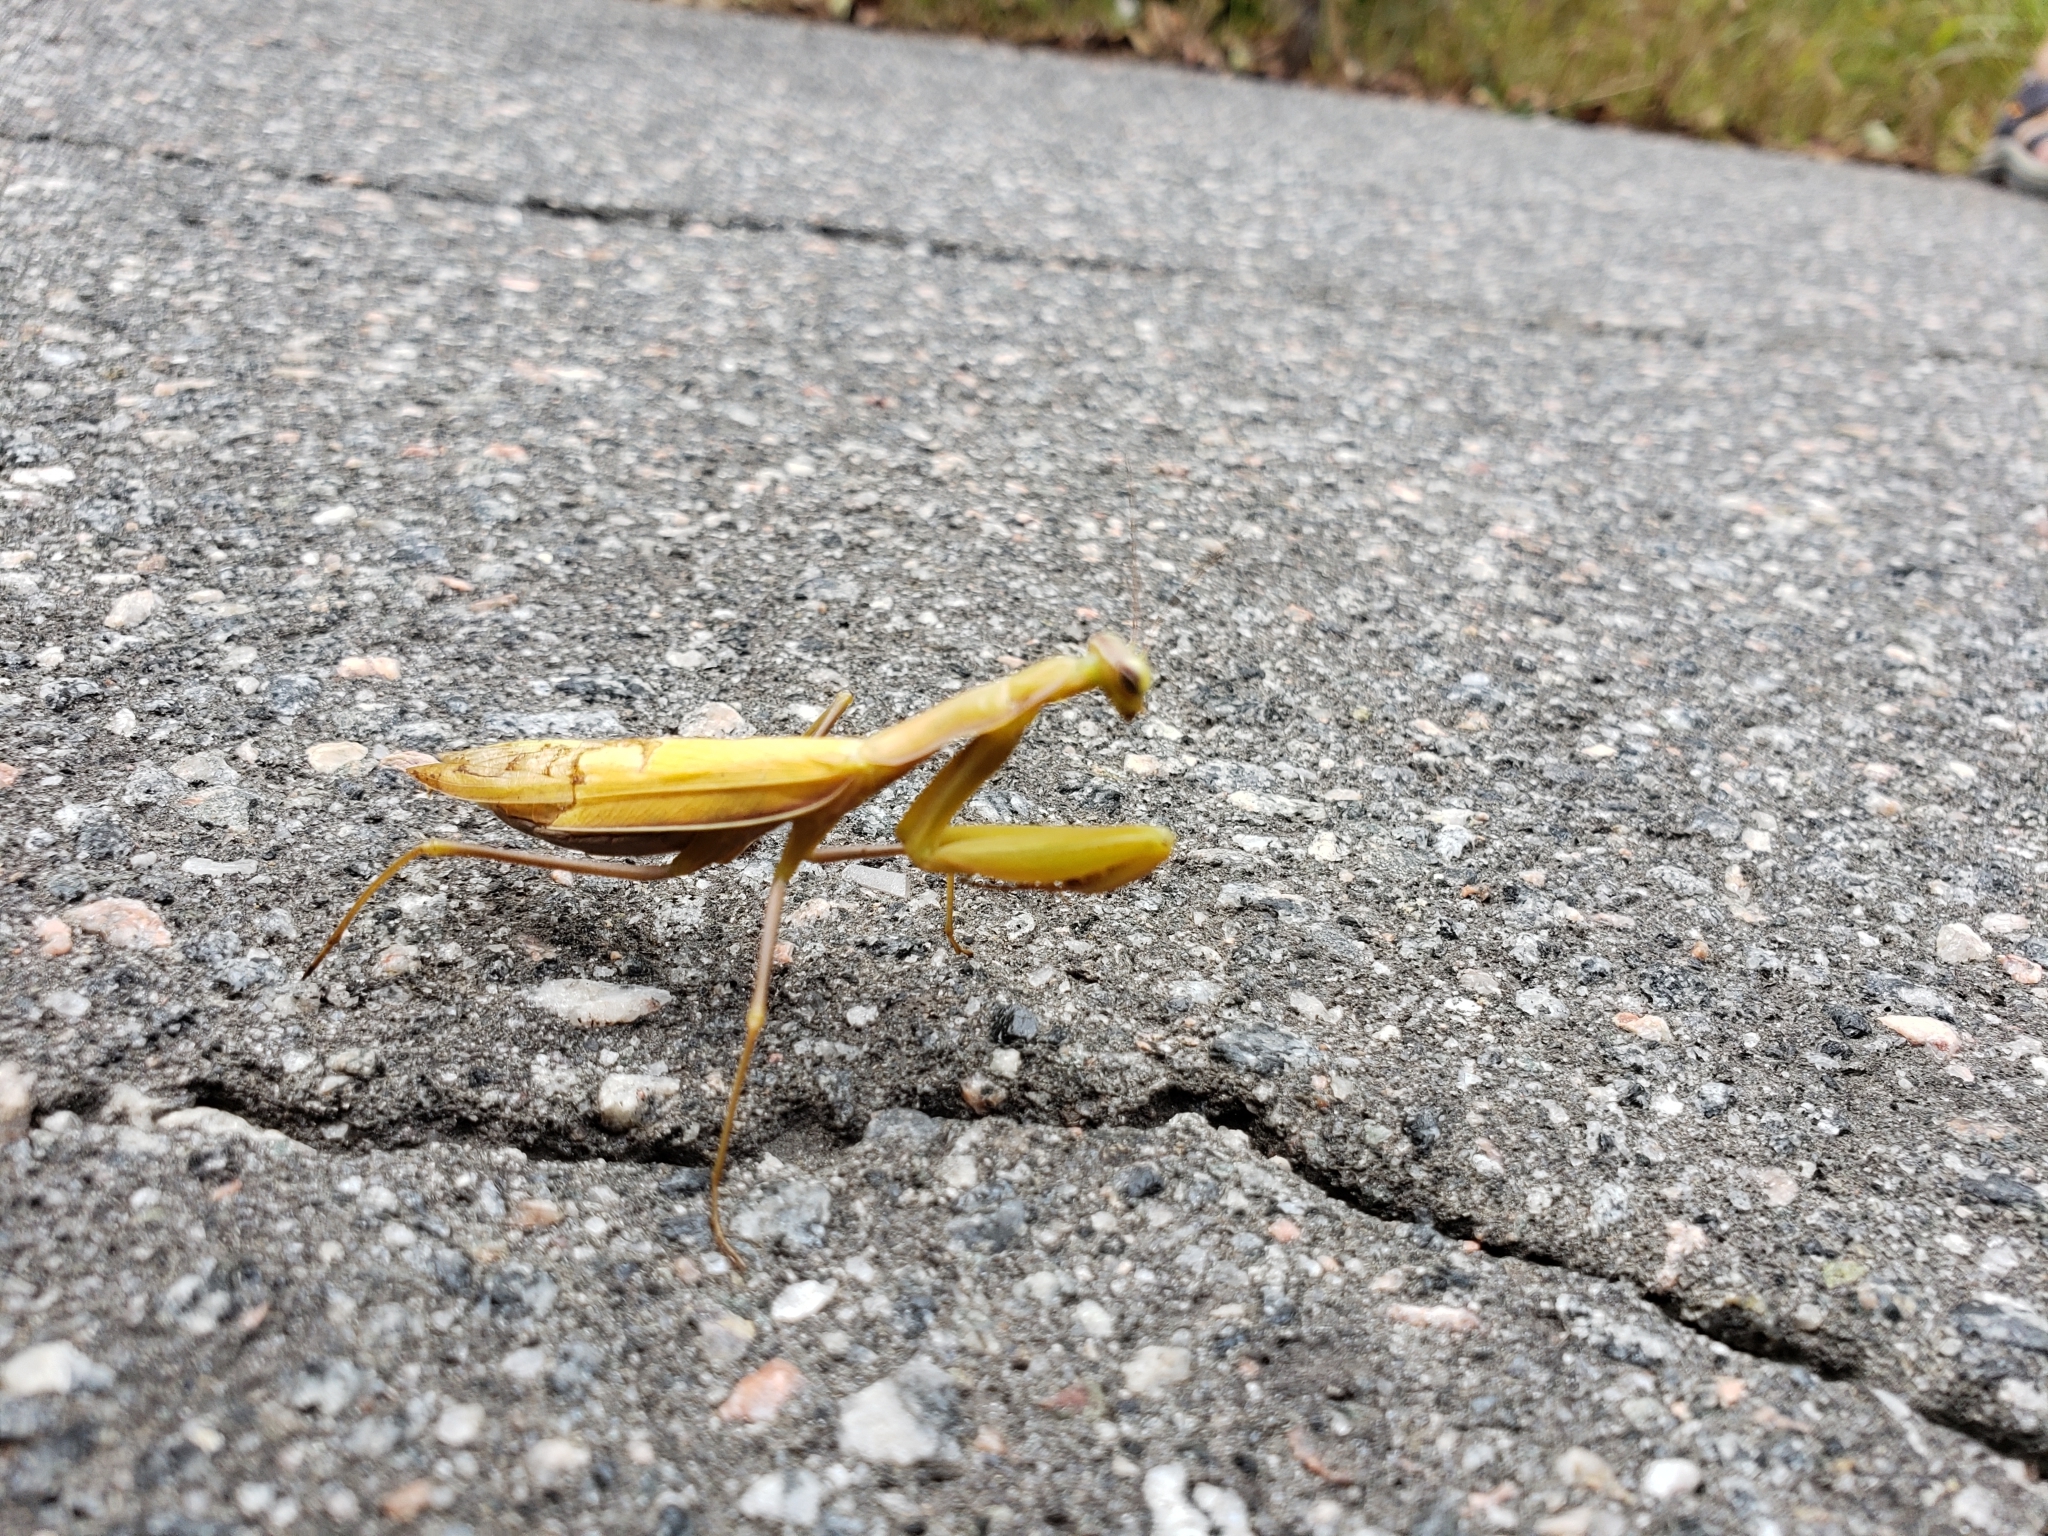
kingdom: Animalia
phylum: Arthropoda
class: Insecta
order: Mantodea
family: Mantidae
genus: Mantis
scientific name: Mantis religiosa
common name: Praying mantis
